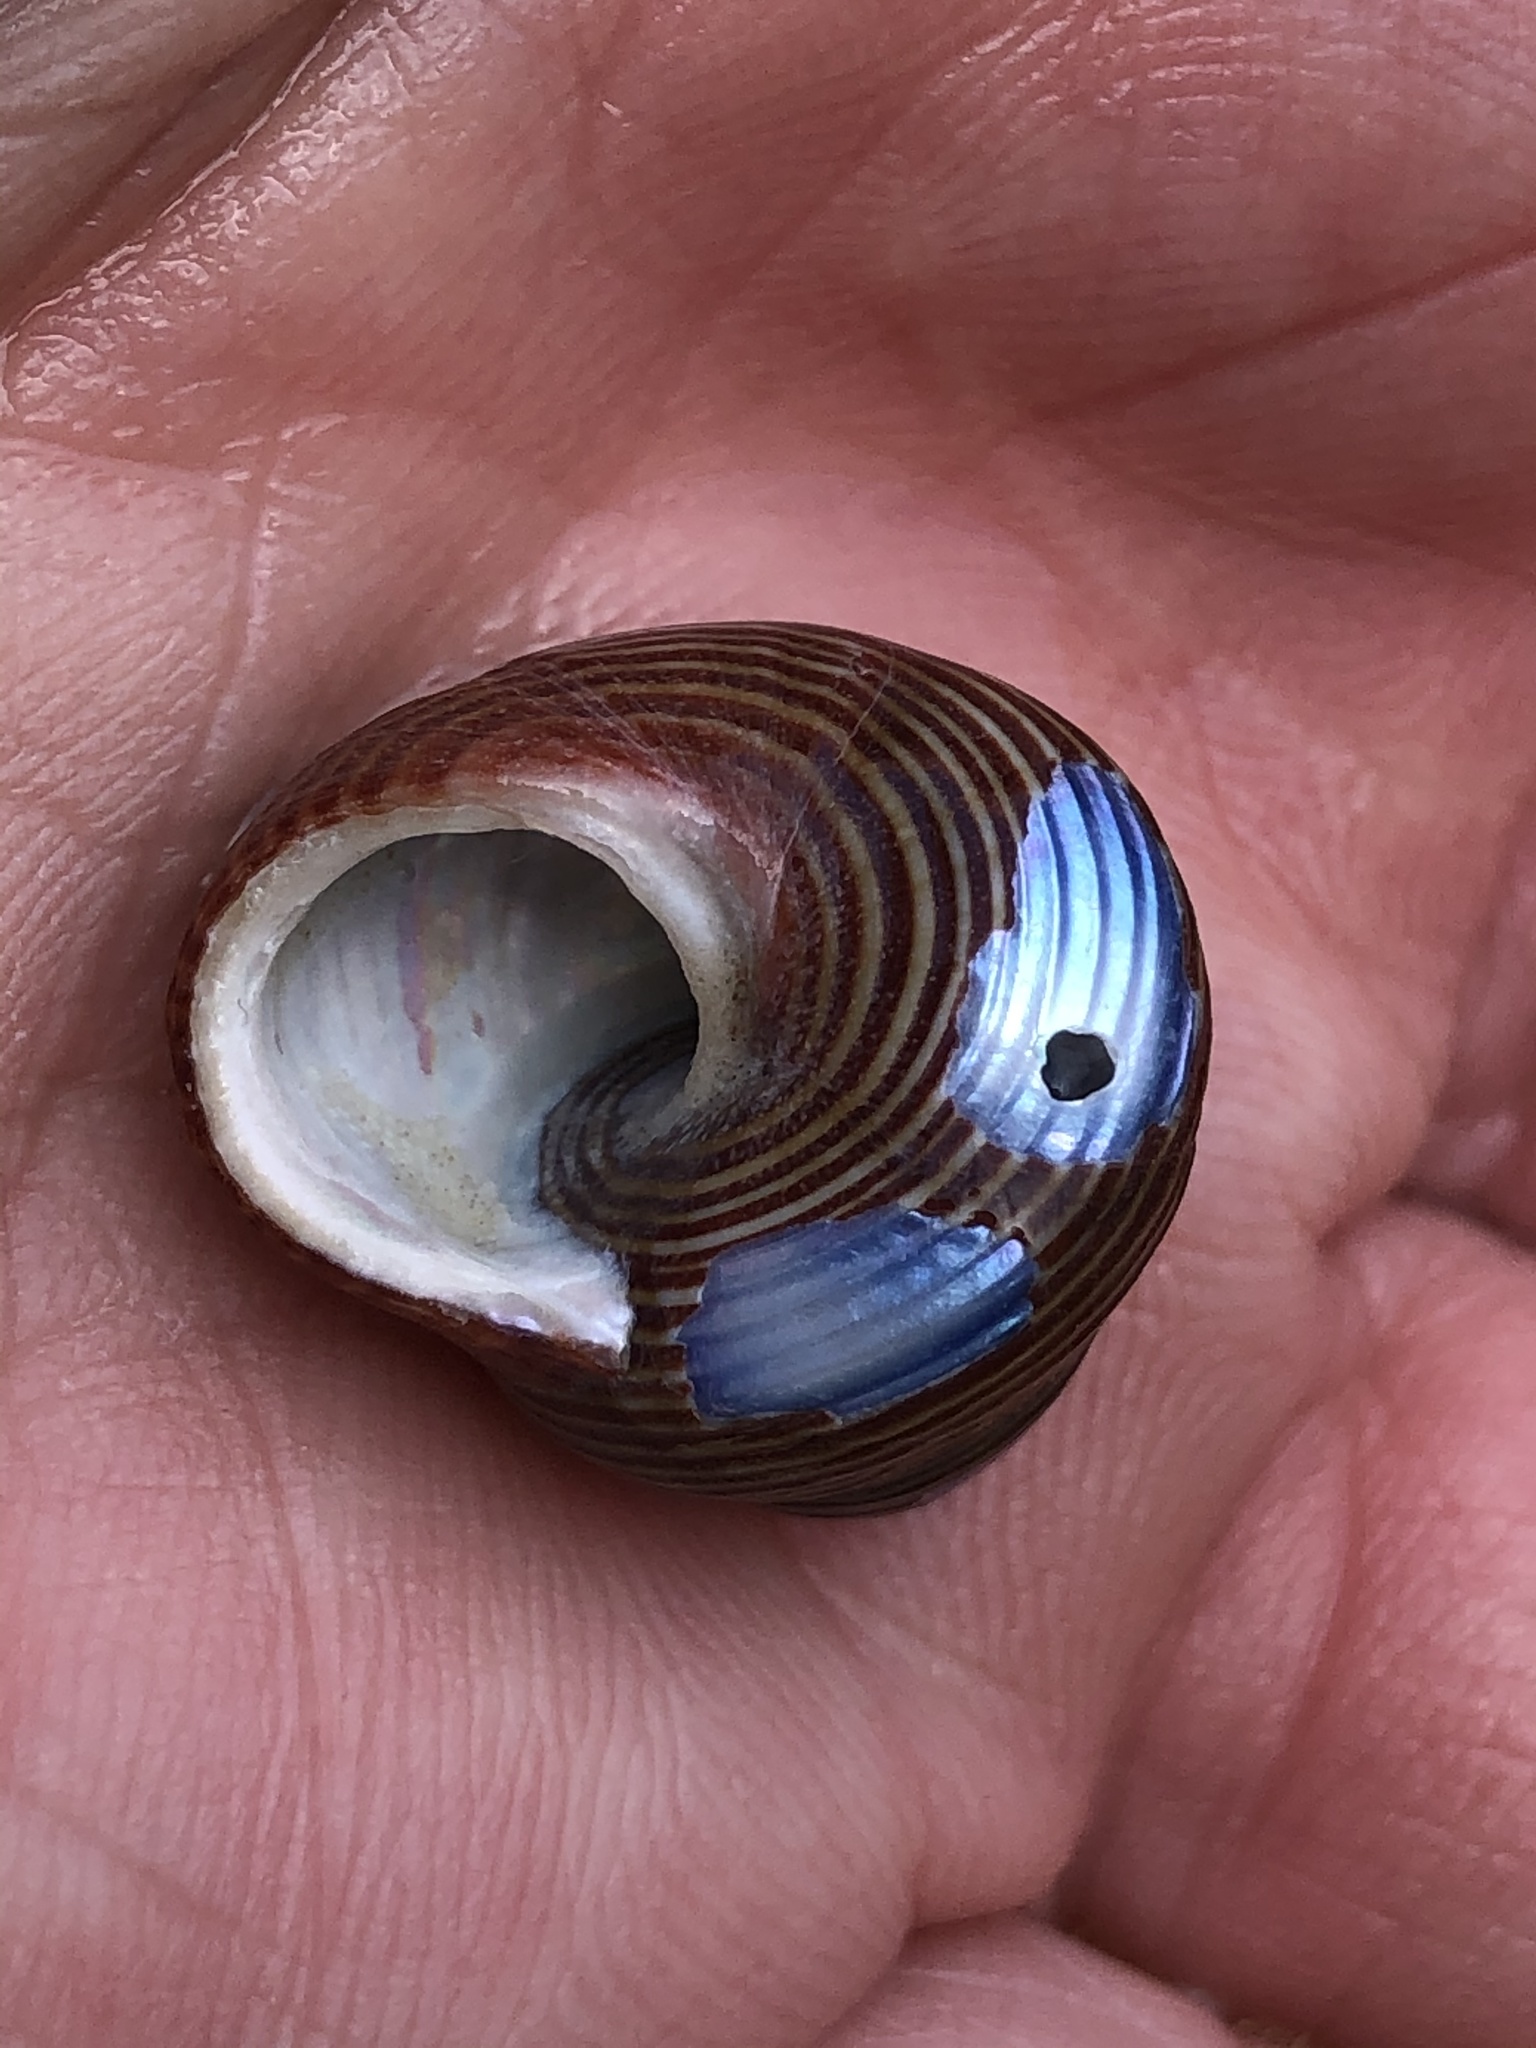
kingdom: Animalia
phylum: Mollusca
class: Gastropoda
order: Trochida
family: Calliostomatidae
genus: Calliostoma
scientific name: Calliostoma ligatum
